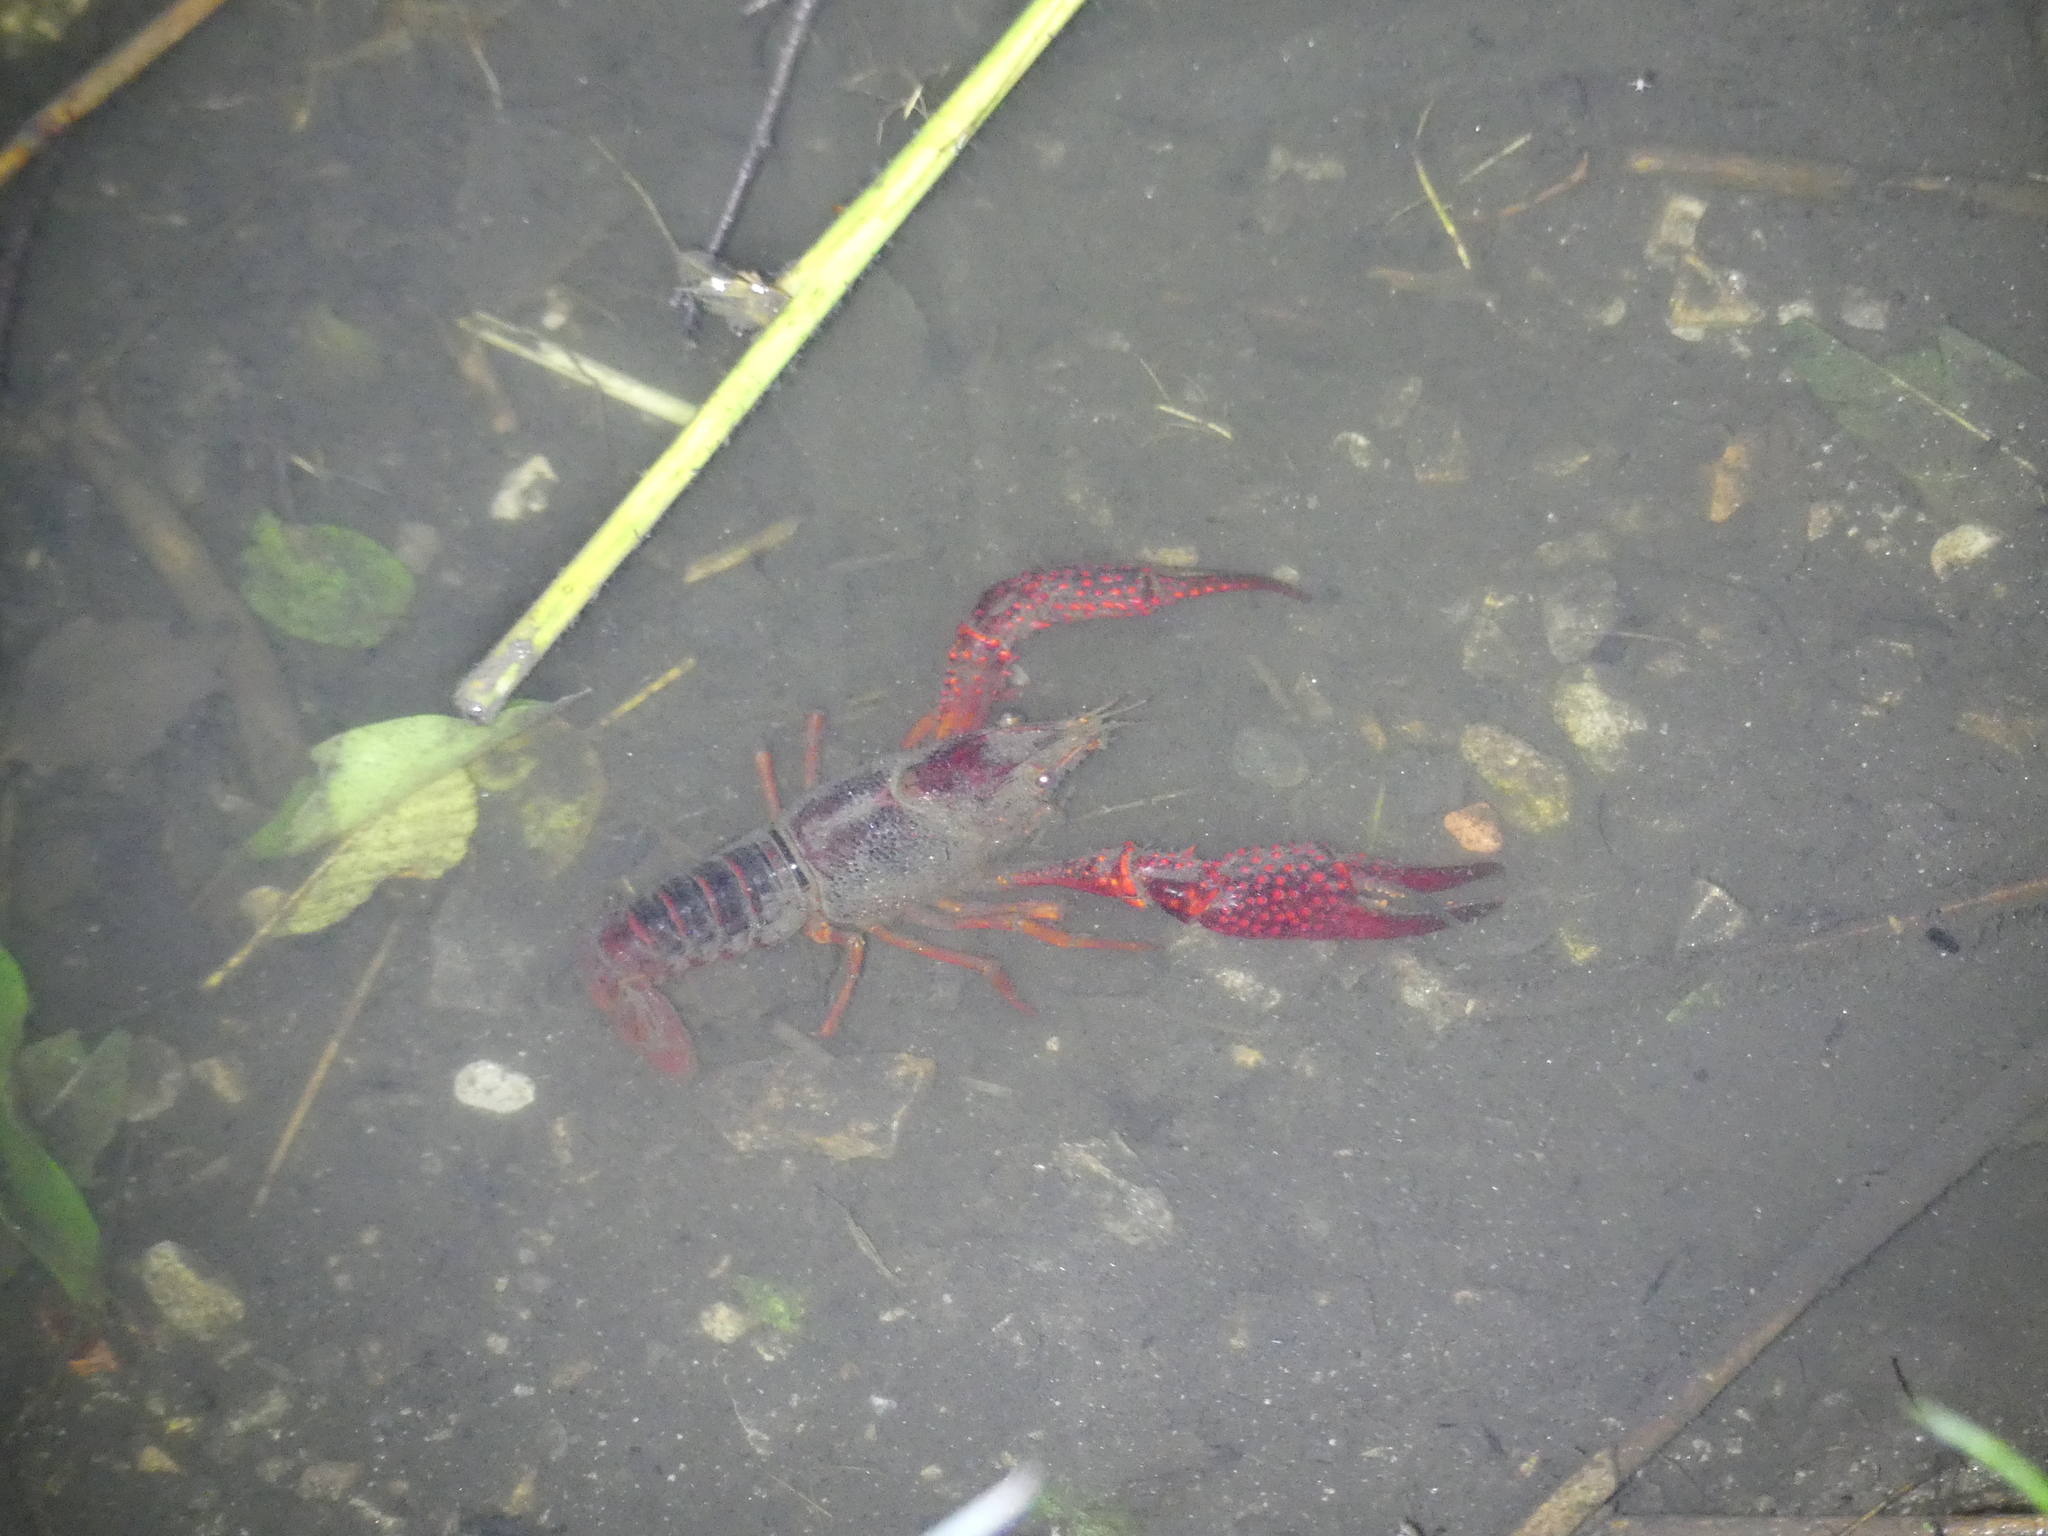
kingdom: Animalia
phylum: Arthropoda
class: Malacostraca
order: Decapoda
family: Cambaridae
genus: Procambarus
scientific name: Procambarus clarkii
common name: Red swamp crayfish
